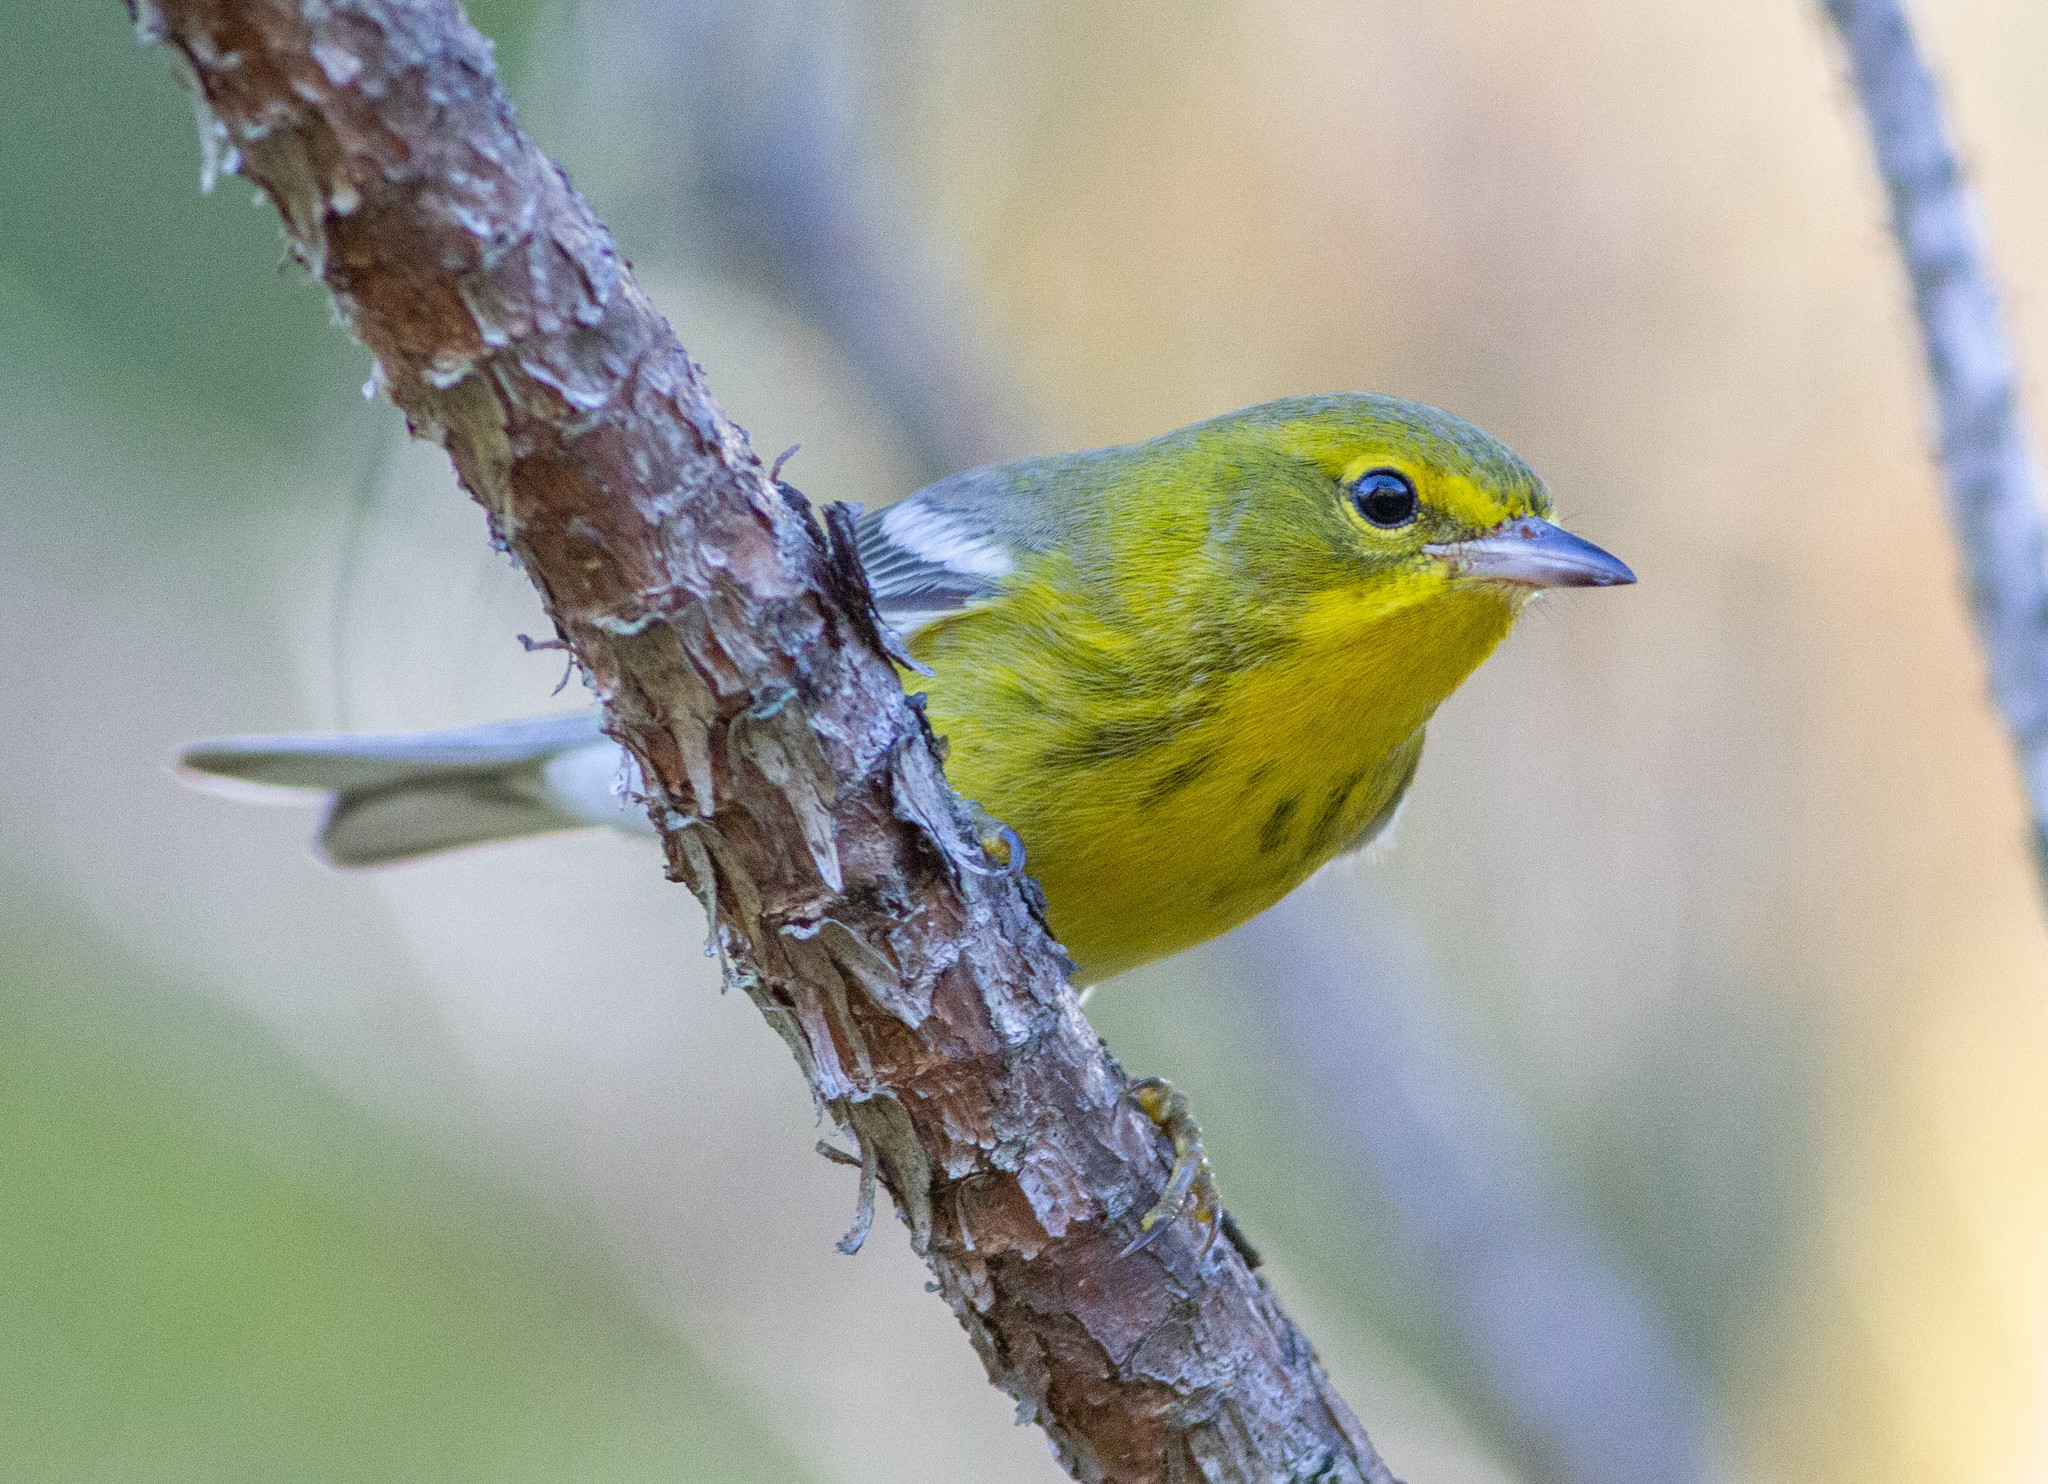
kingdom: Animalia
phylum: Chordata
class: Aves
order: Passeriformes
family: Parulidae
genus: Setophaga
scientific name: Setophaga pinus
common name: Pine warbler
